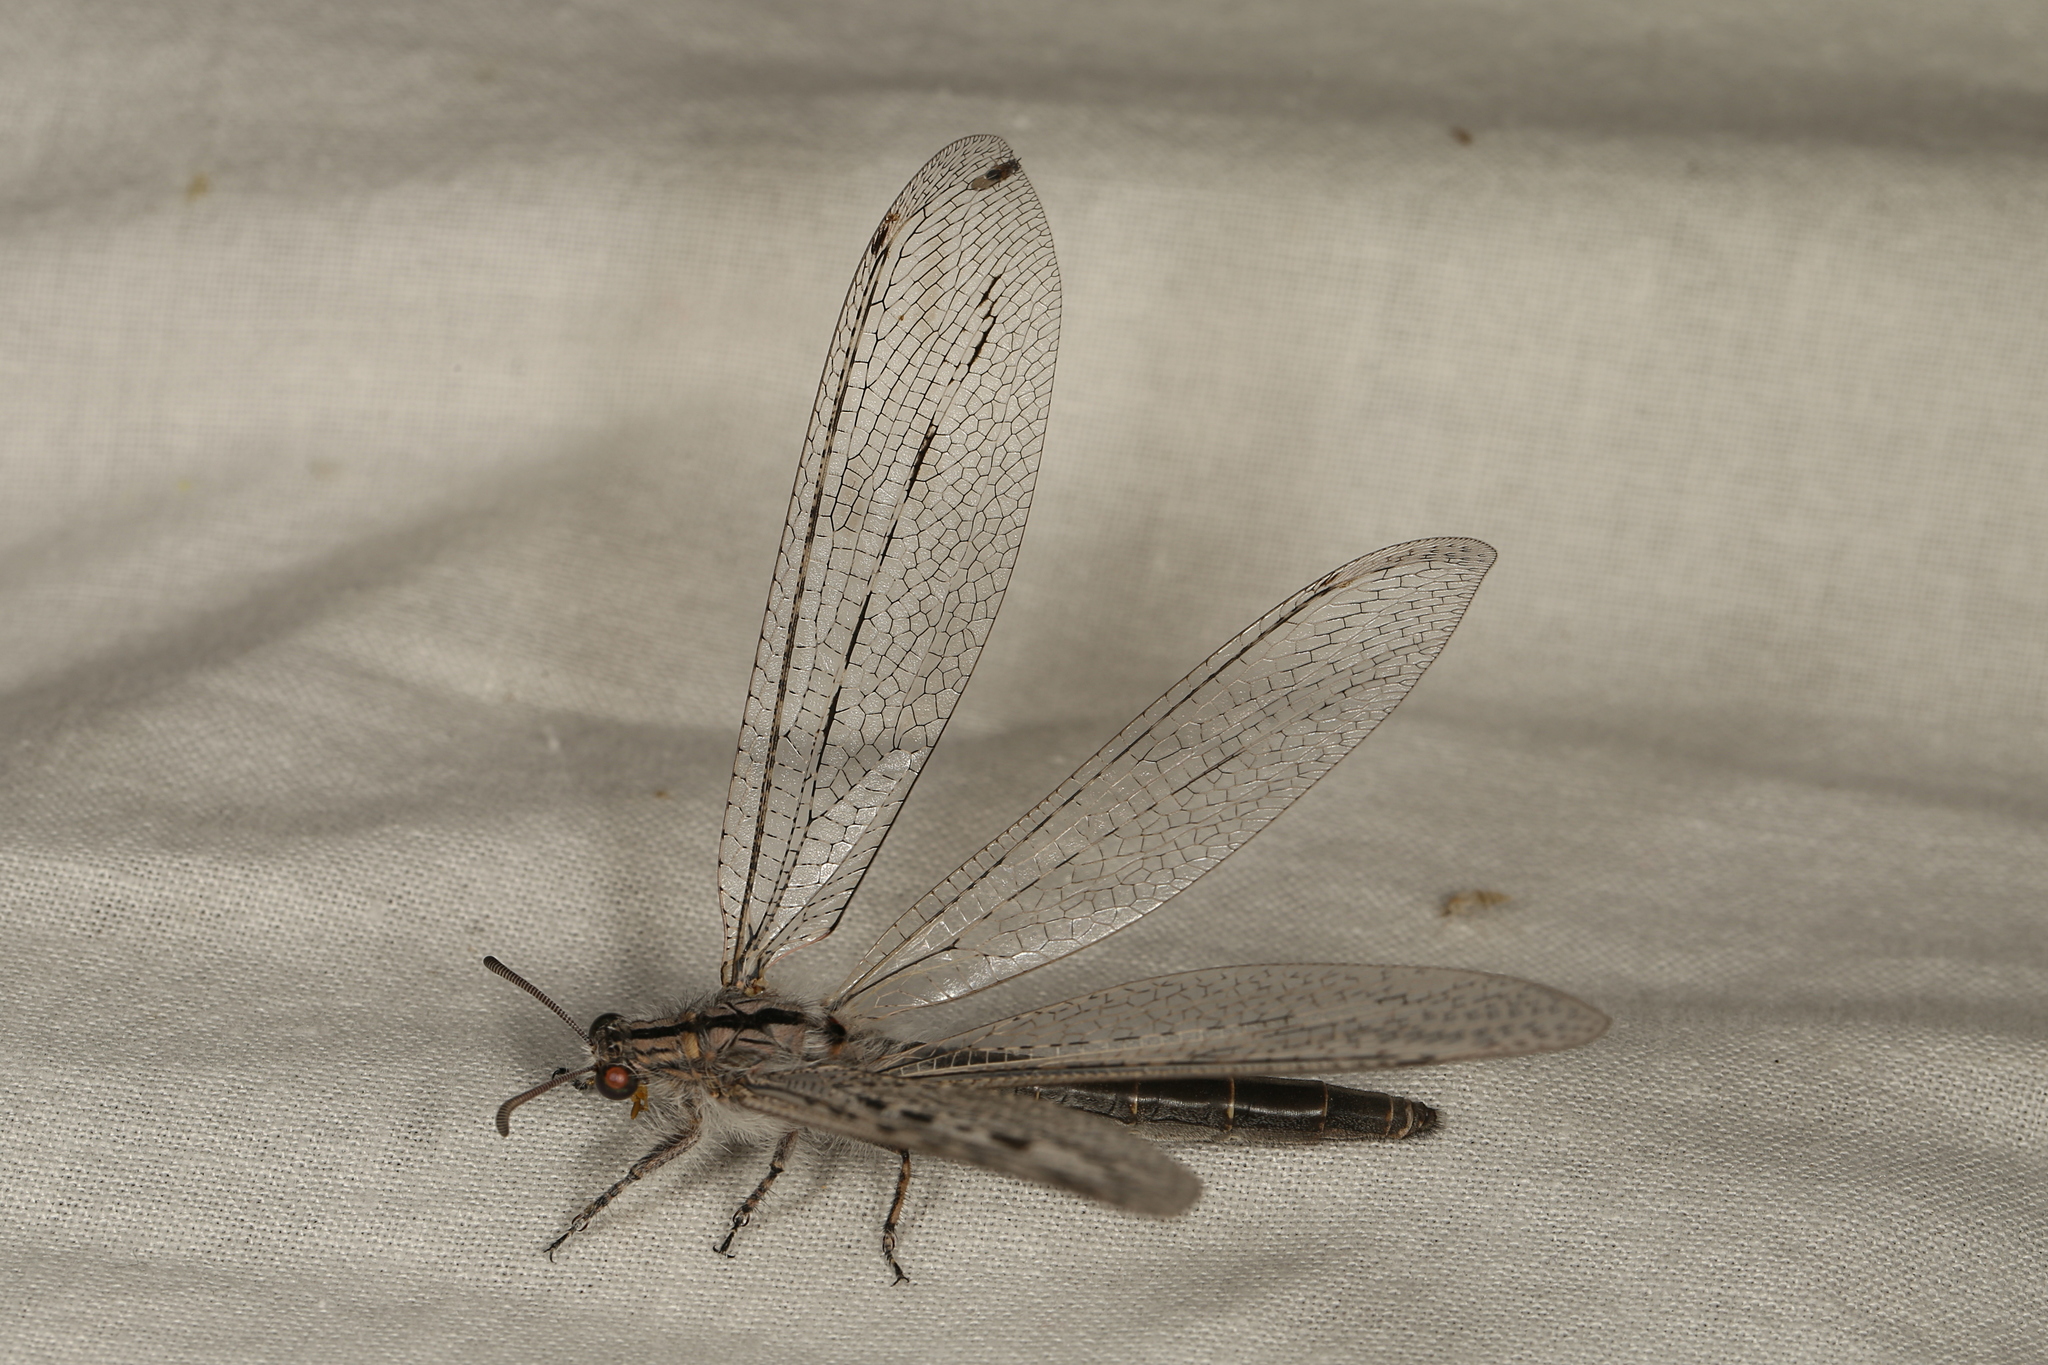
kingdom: Animalia
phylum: Arthropoda
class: Insecta
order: Neuroptera
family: Myrmeleontidae
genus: Heoclisis
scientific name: Heoclisis fundata
